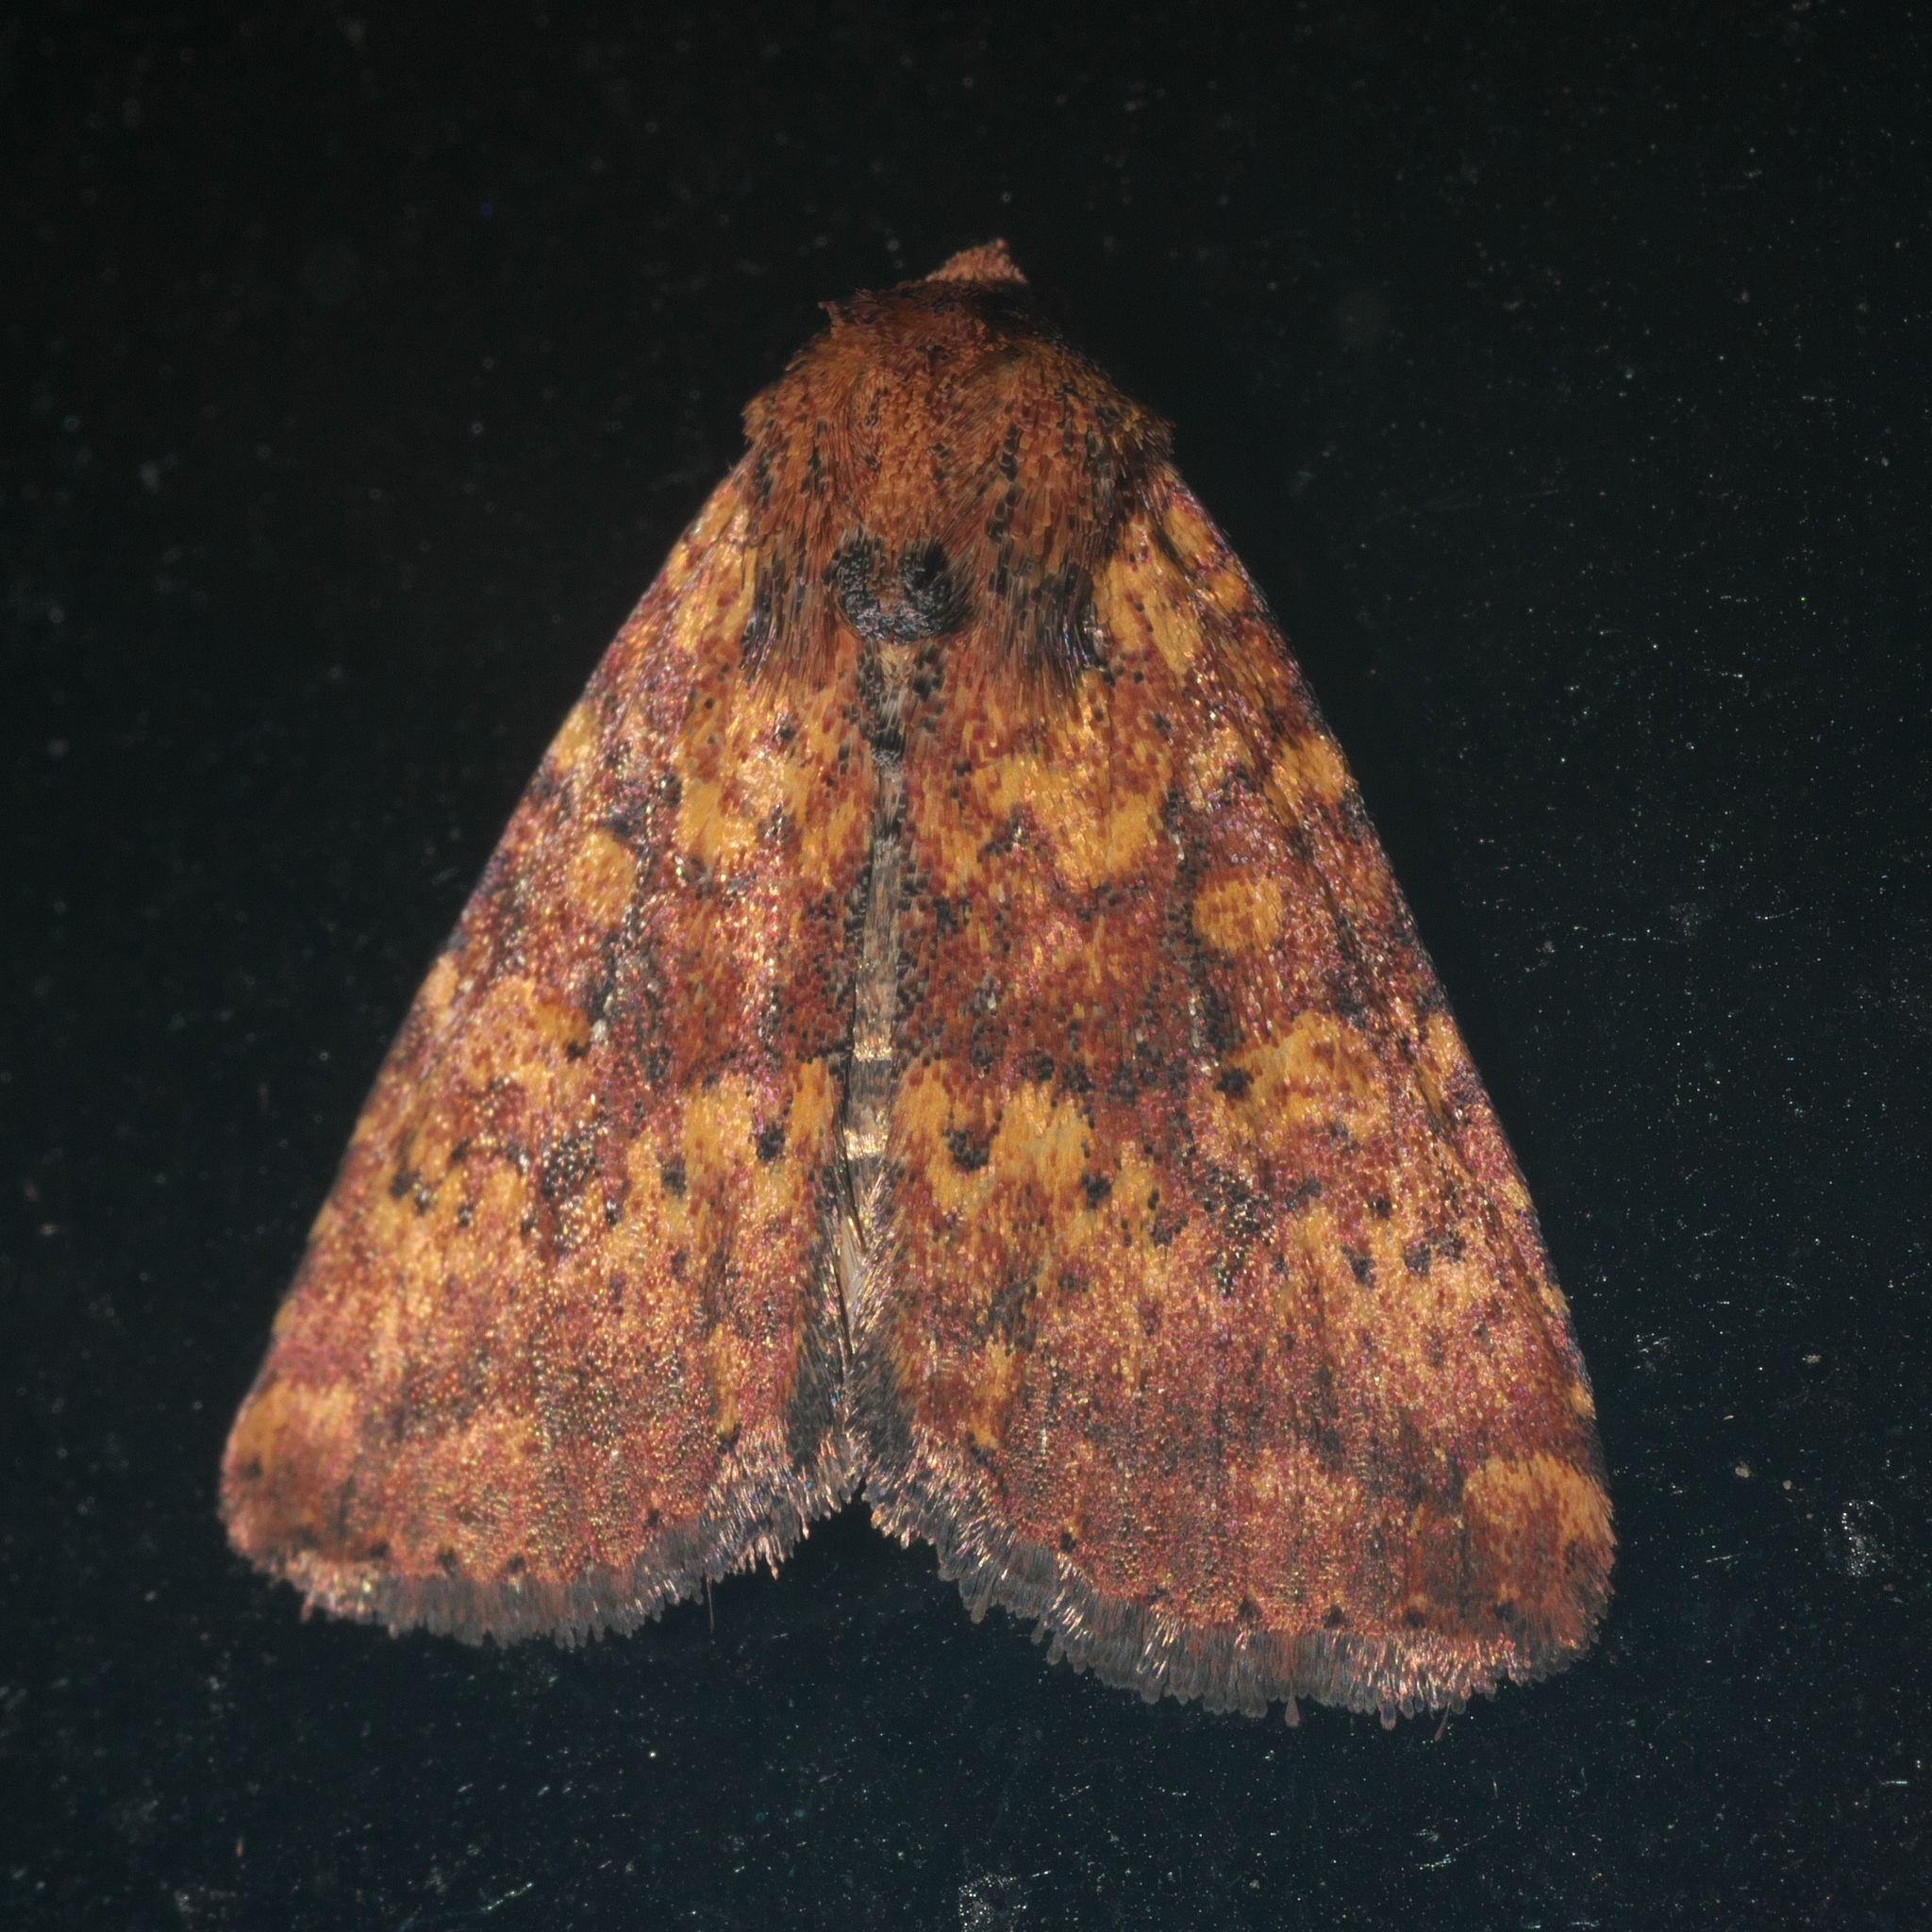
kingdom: Animalia
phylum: Arthropoda
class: Insecta
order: Lepidoptera
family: Noctuidae
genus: Perigea
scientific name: Perigea xanthioides
